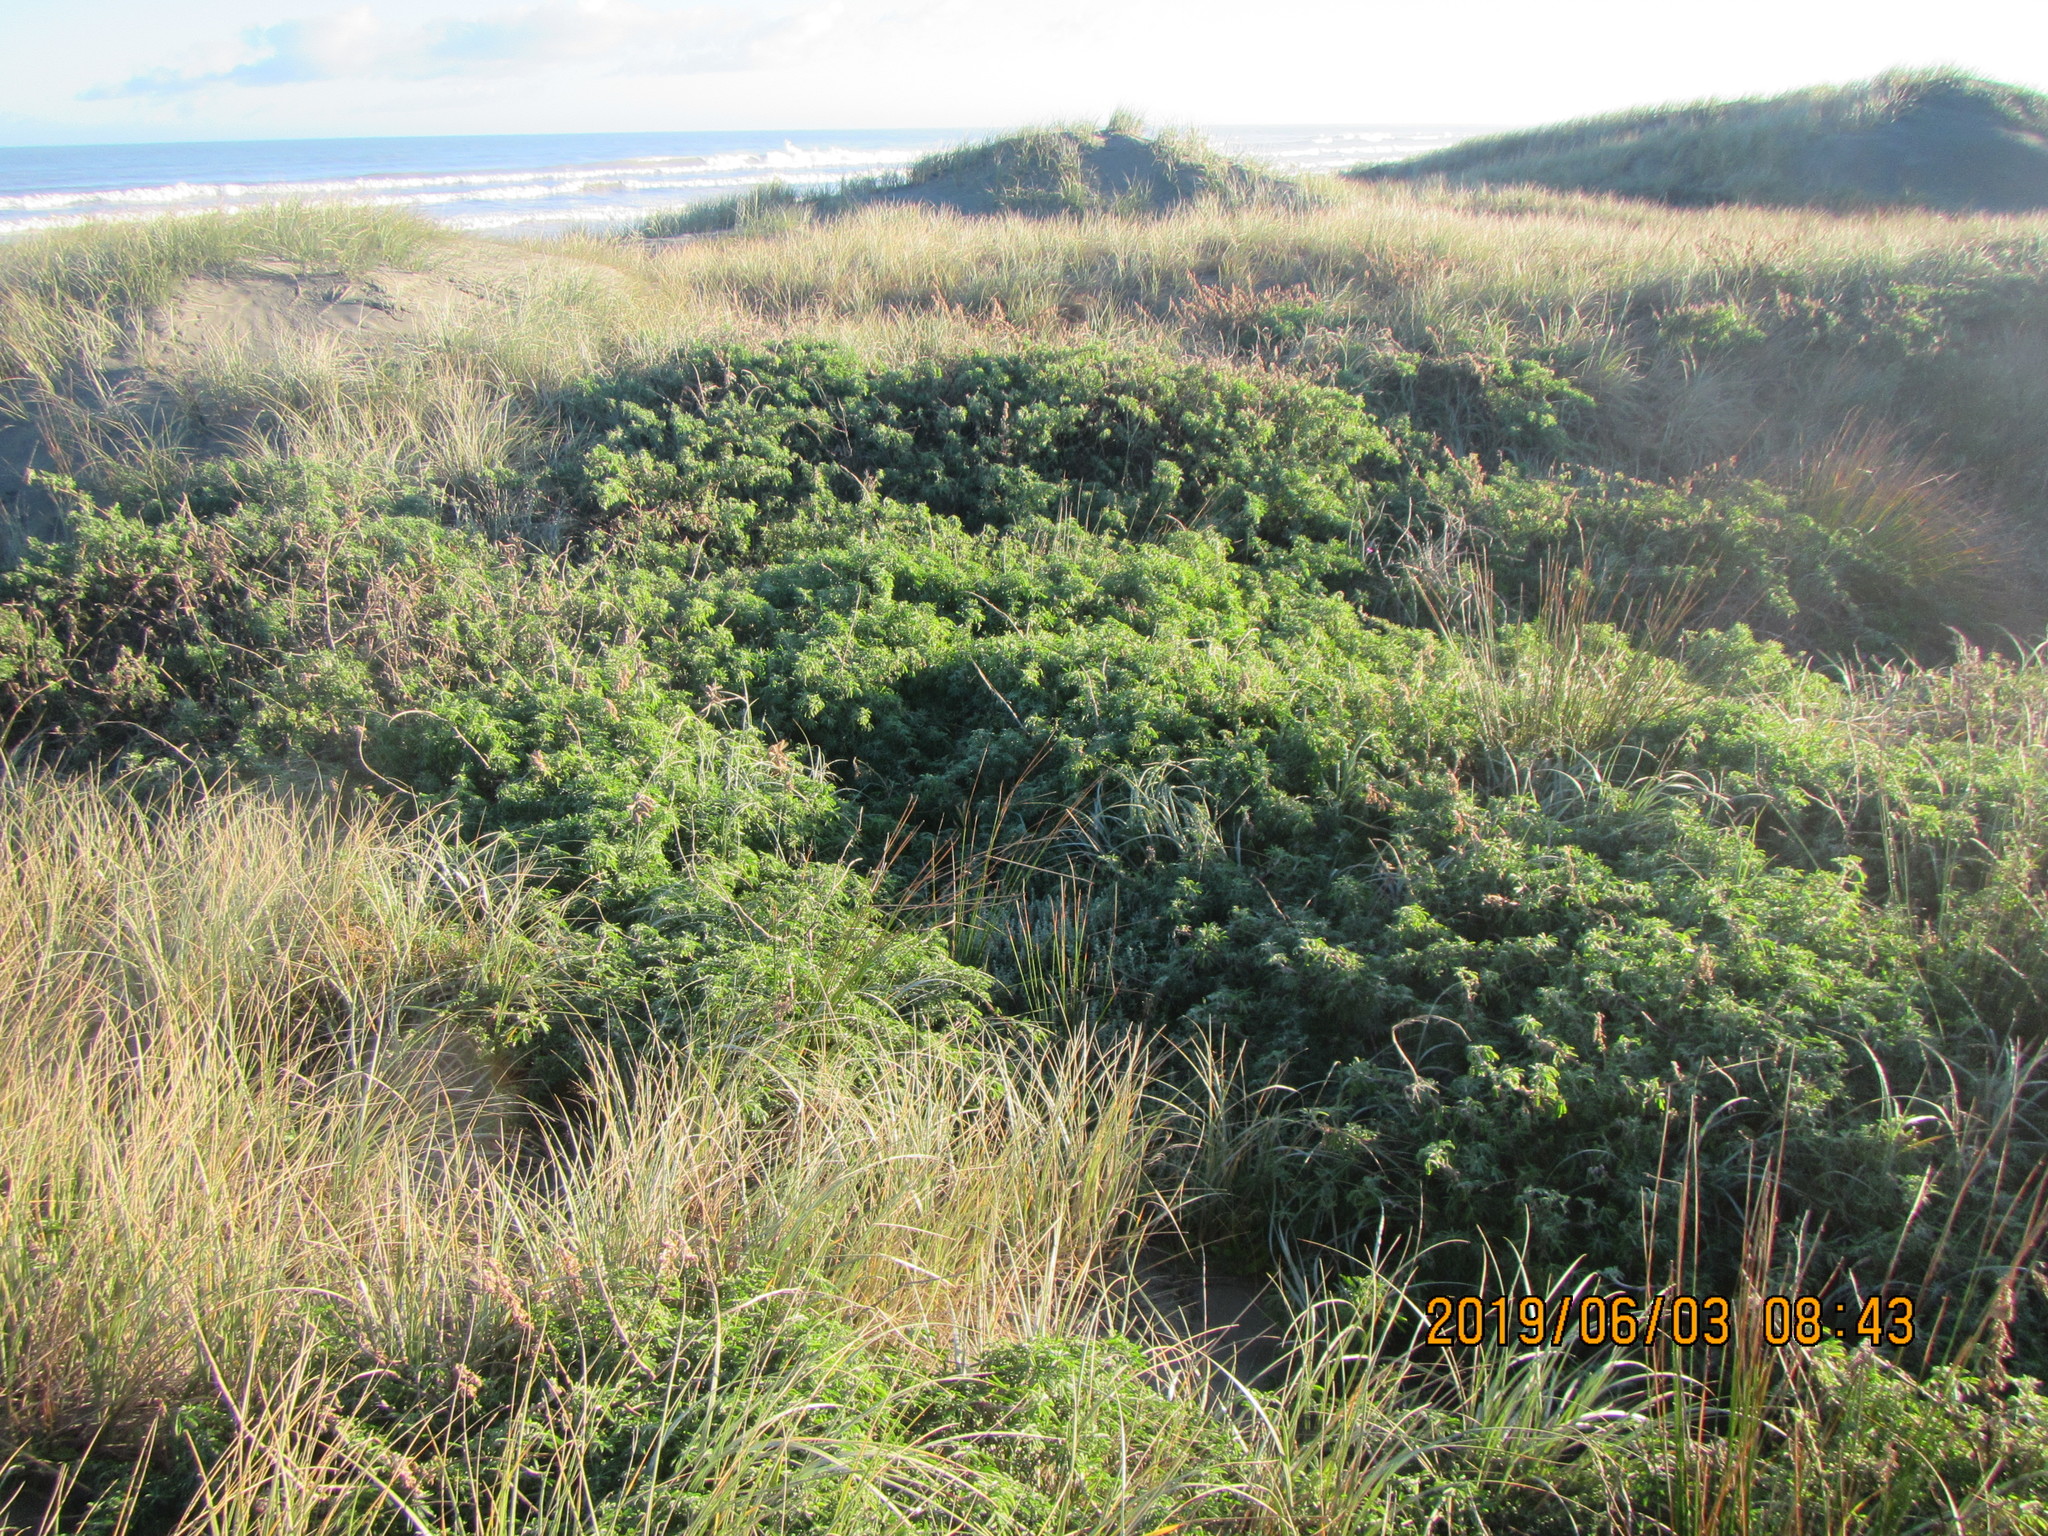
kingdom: Plantae
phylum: Tracheophyta
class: Magnoliopsida
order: Malvales
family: Thymelaeaceae
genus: Pimelea
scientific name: Pimelea villosa
